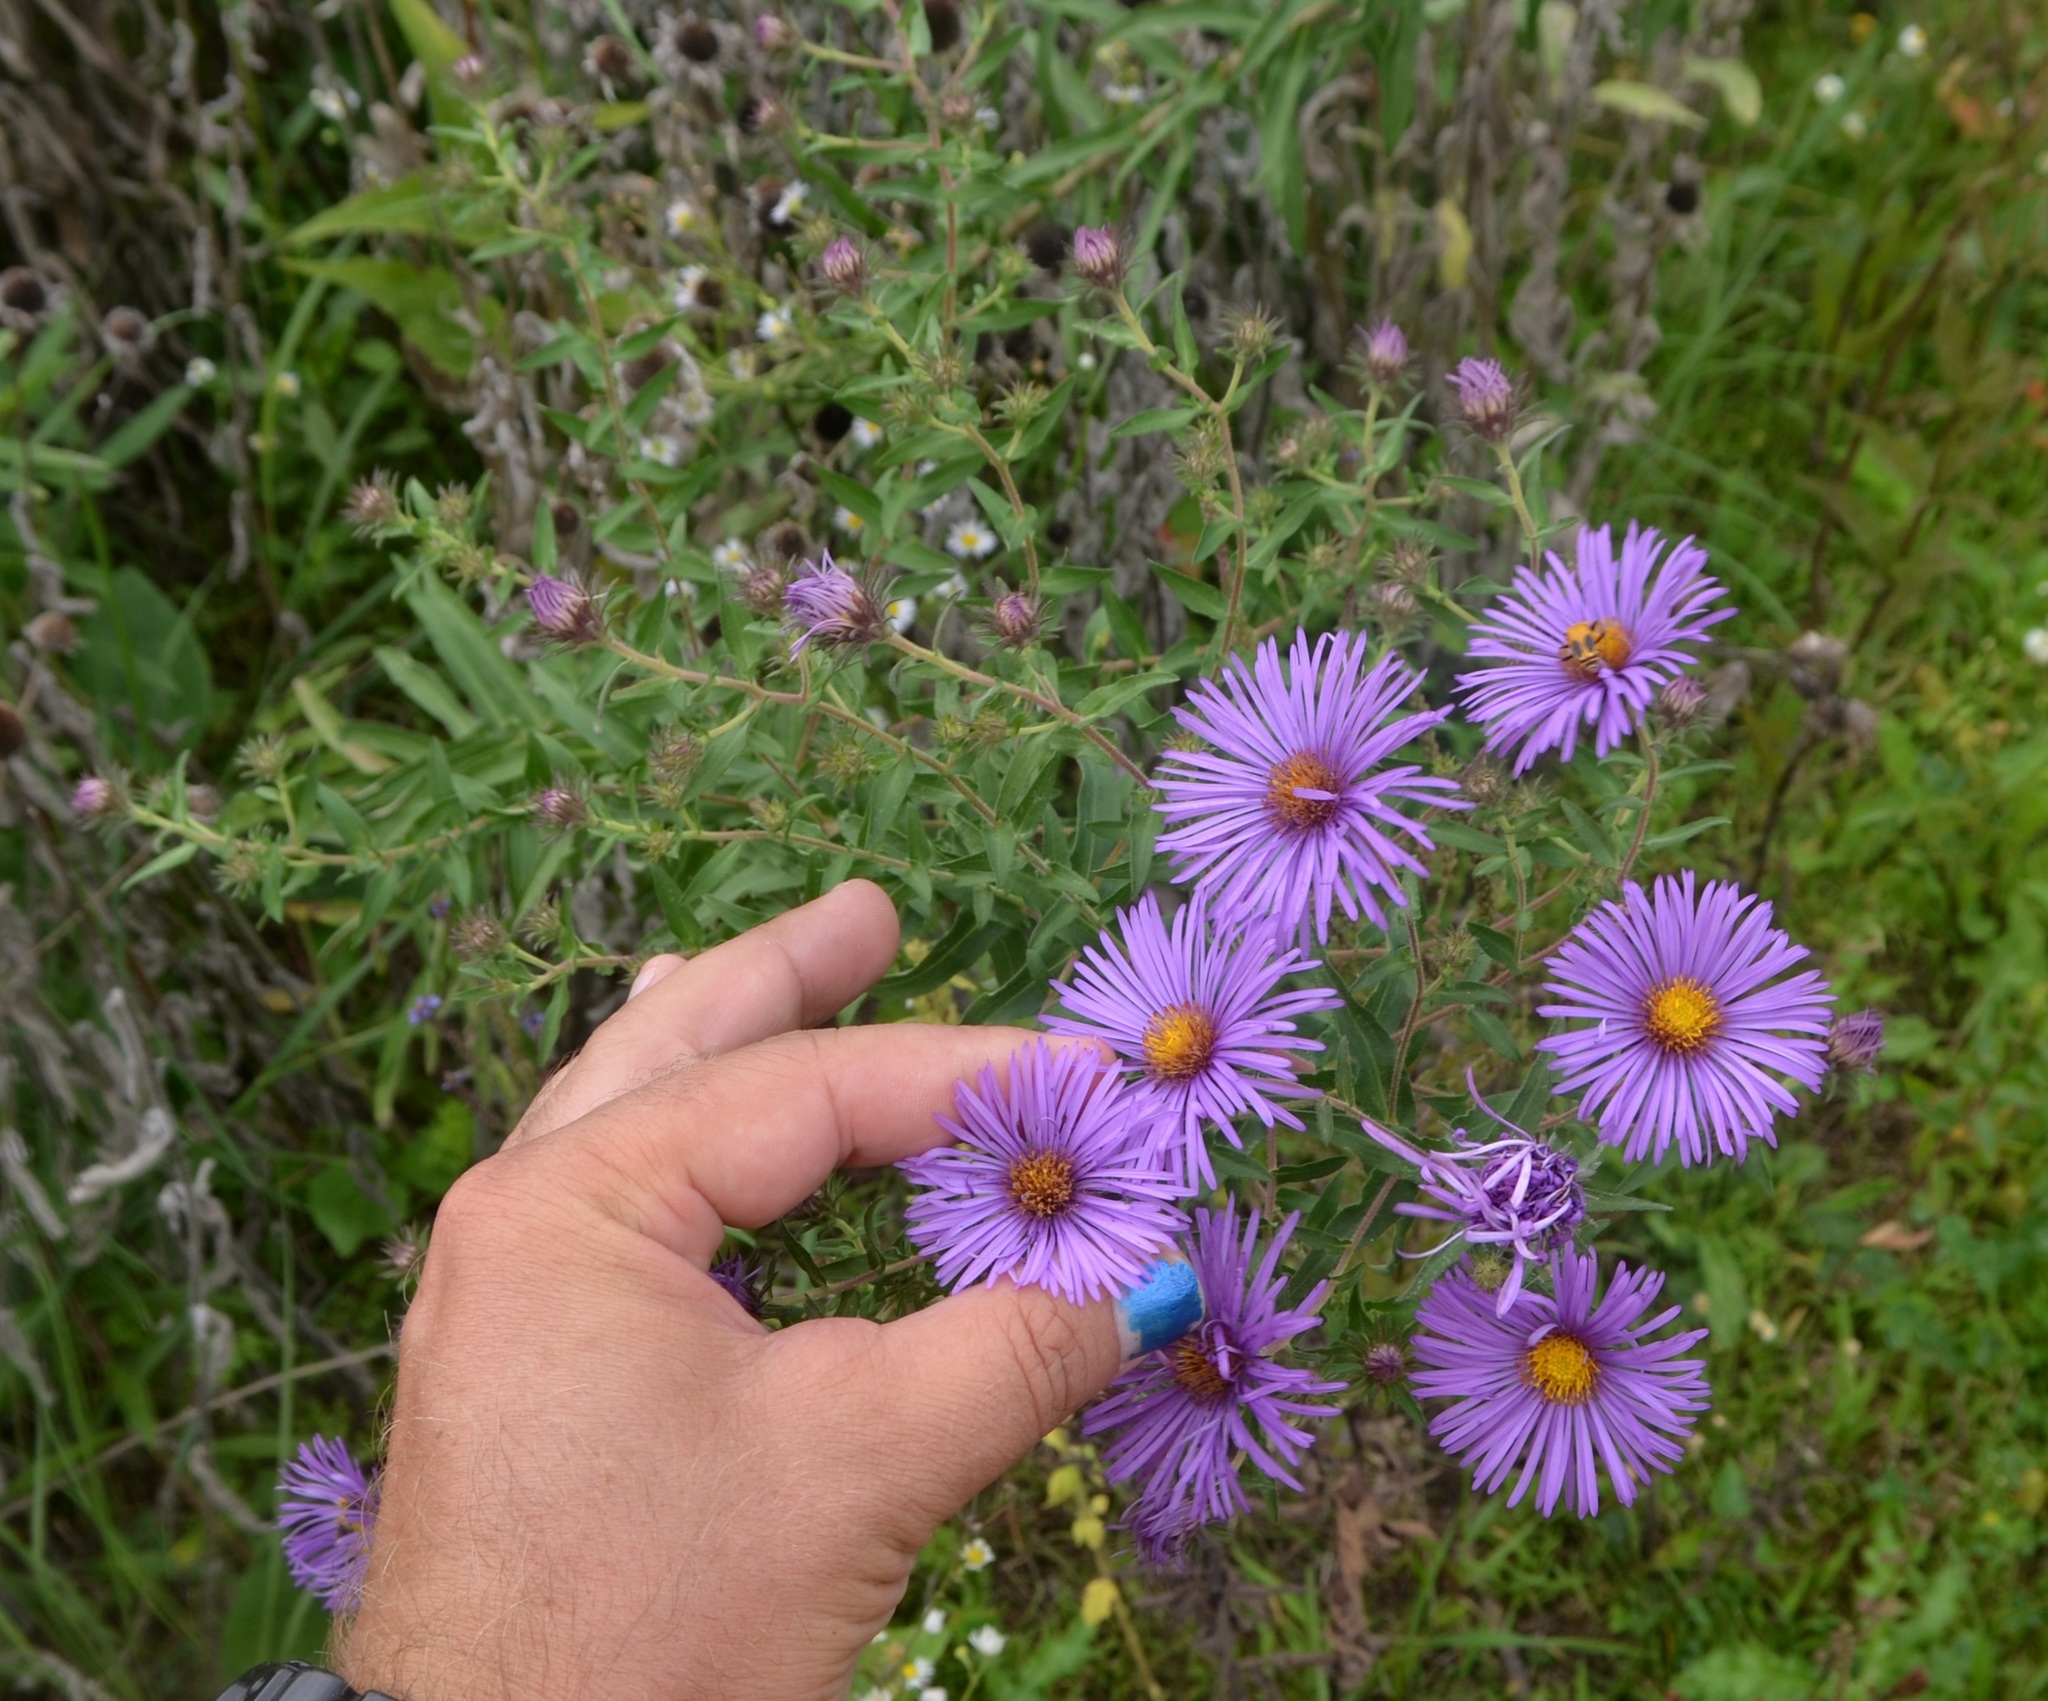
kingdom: Plantae
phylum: Tracheophyta
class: Magnoliopsida
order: Asterales
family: Asteraceae
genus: Symphyotrichum
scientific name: Symphyotrichum novae-angliae
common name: Michaelmas daisy
